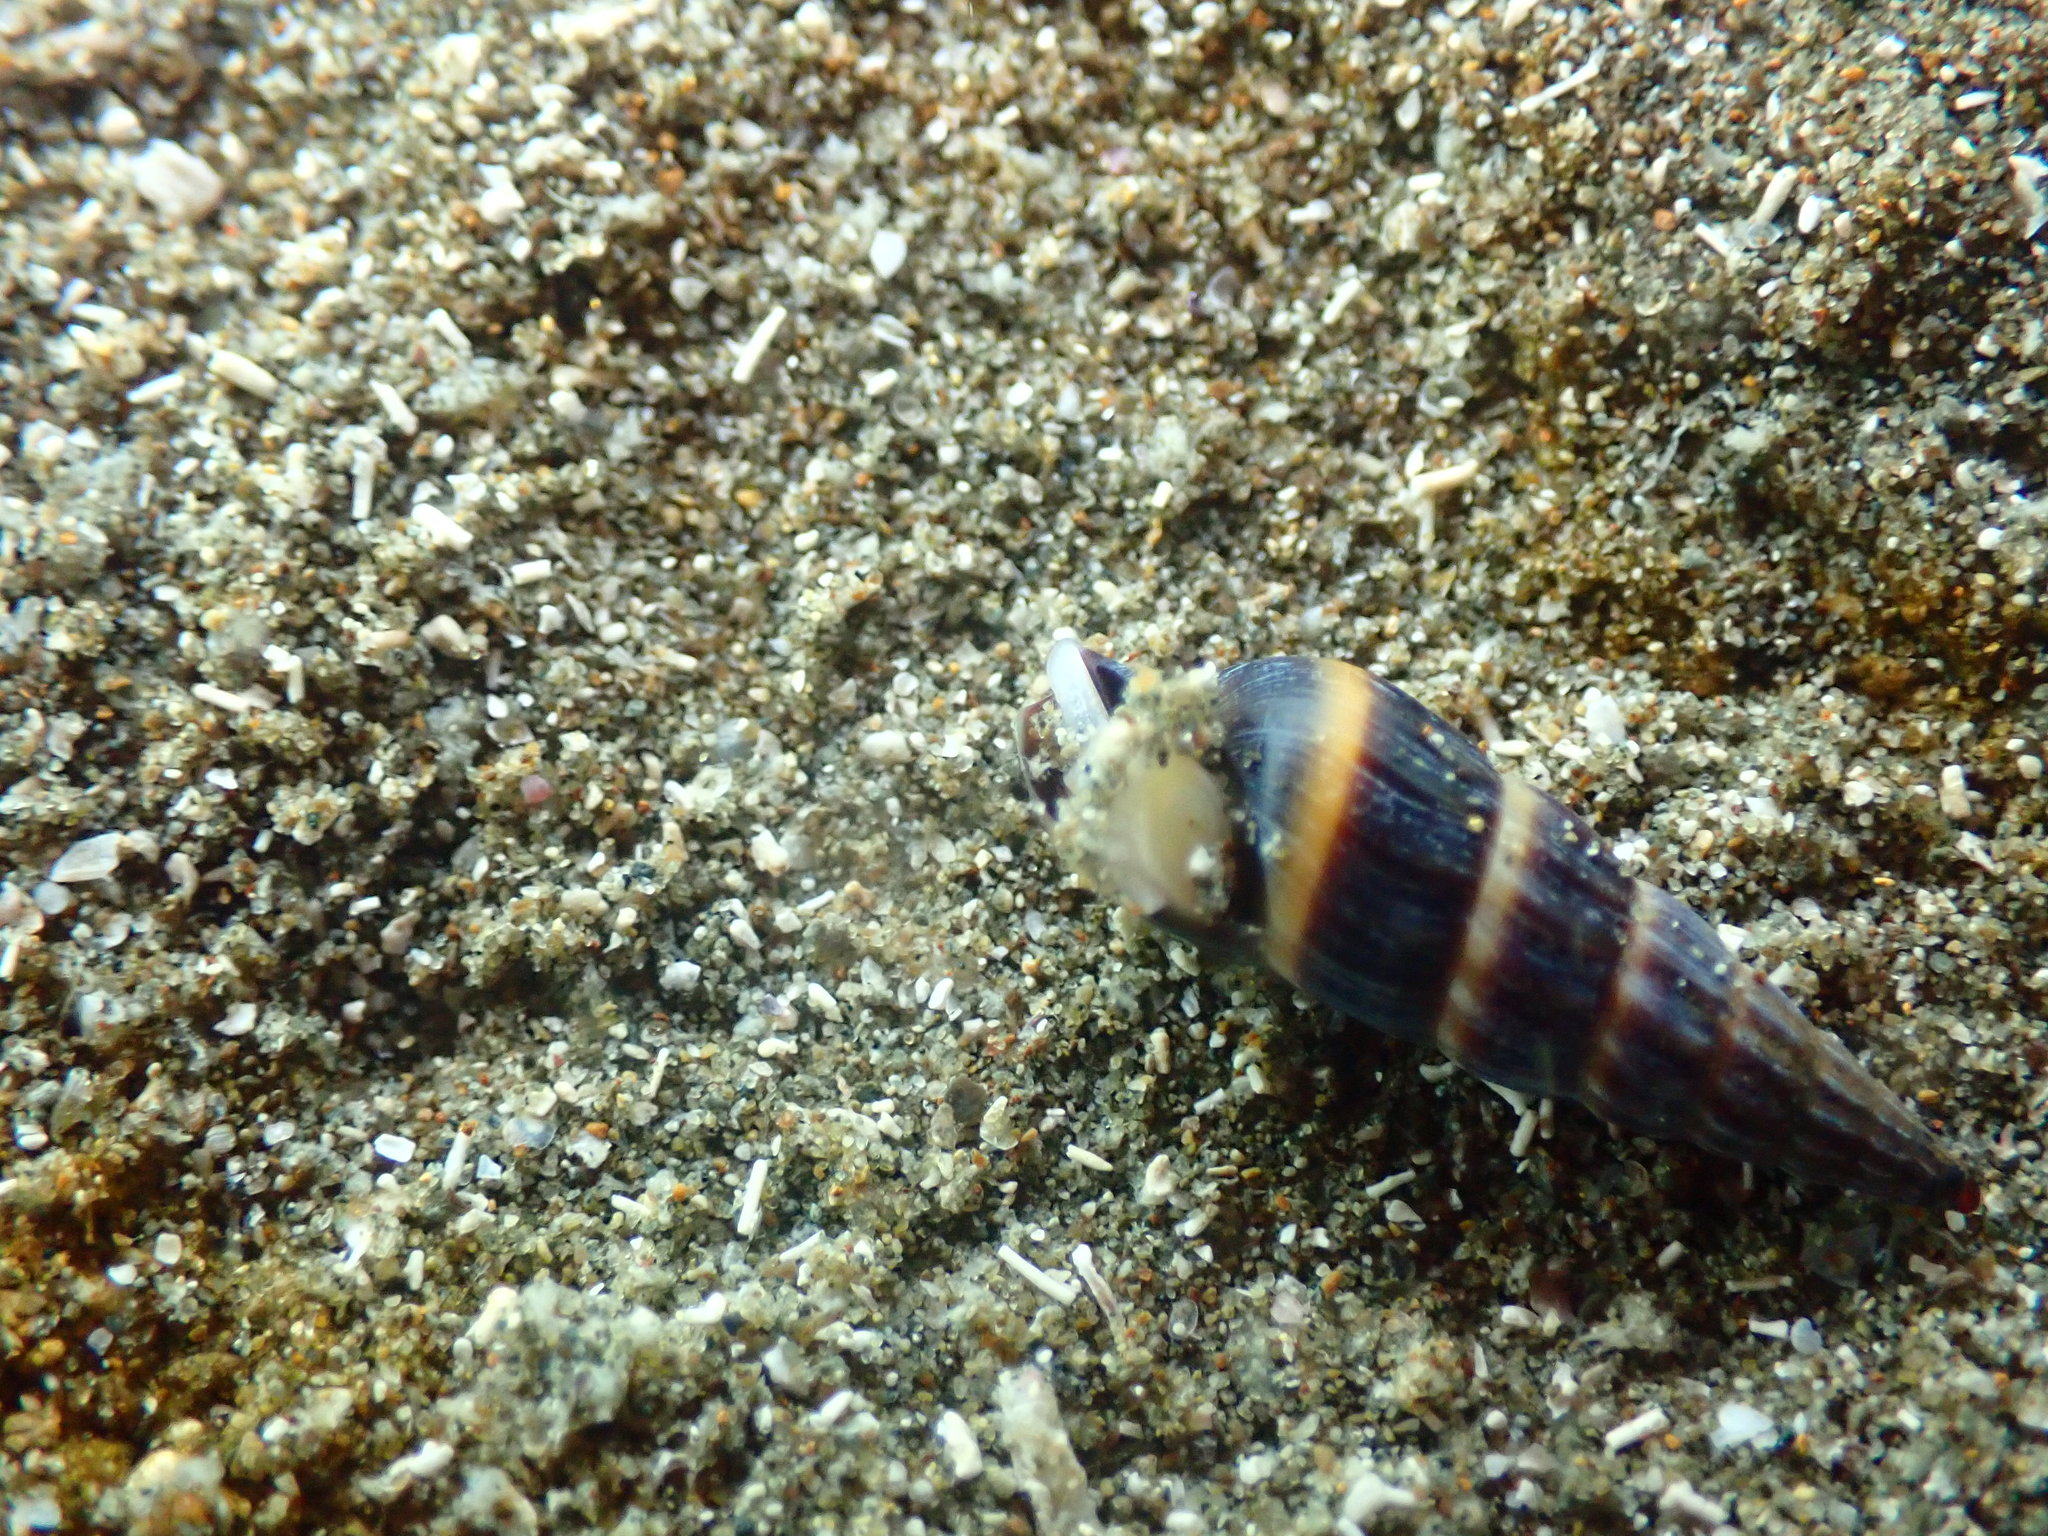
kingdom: Animalia
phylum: Mollusca
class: Gastropoda
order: Neogastropoda
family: Terebridae
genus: Duplicaria
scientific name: Duplicaria tristis
